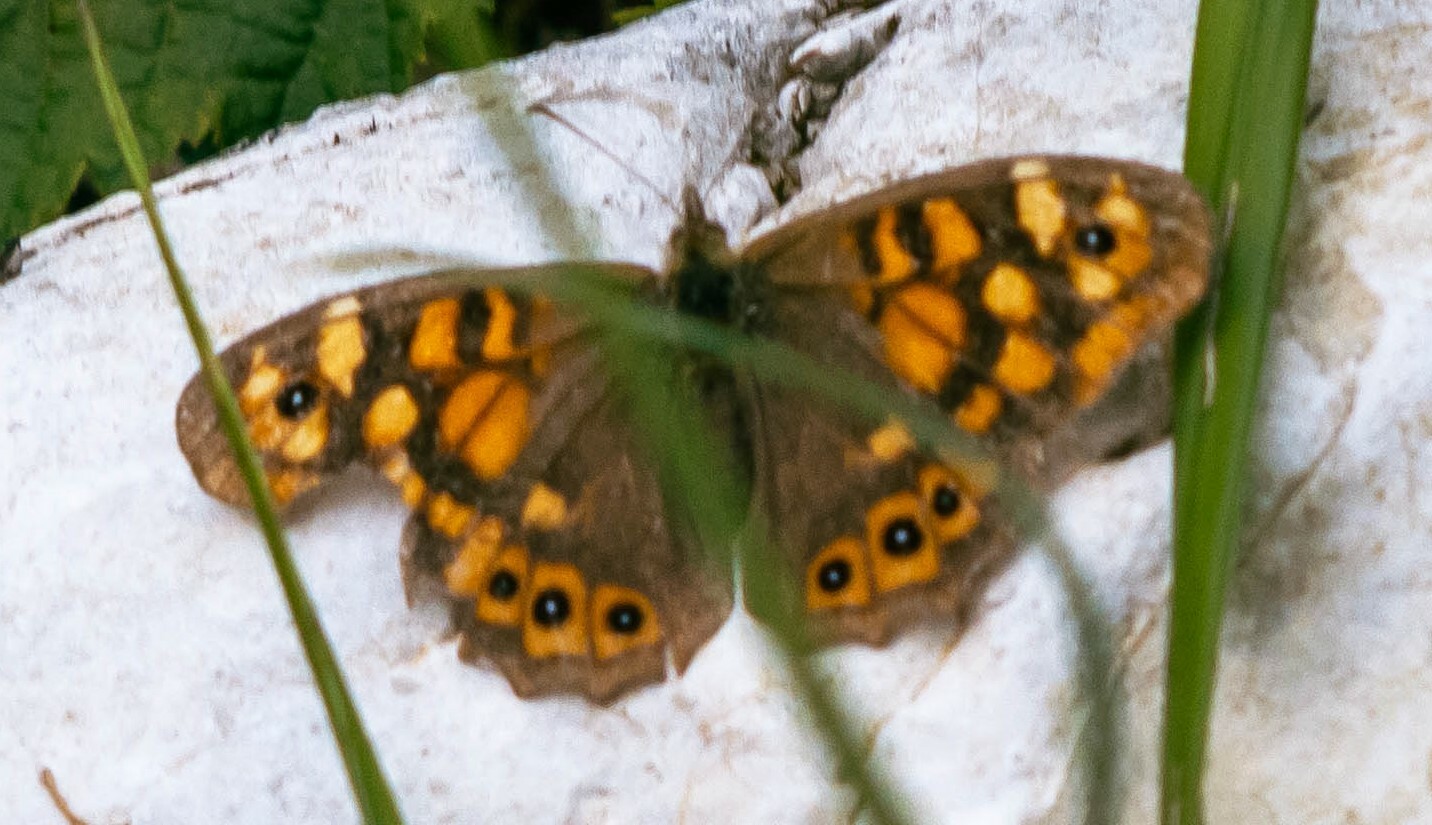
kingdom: Animalia
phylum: Arthropoda
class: Insecta
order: Lepidoptera
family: Nymphalidae
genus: Pararge
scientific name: Pararge aegeria
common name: Speckled wood
